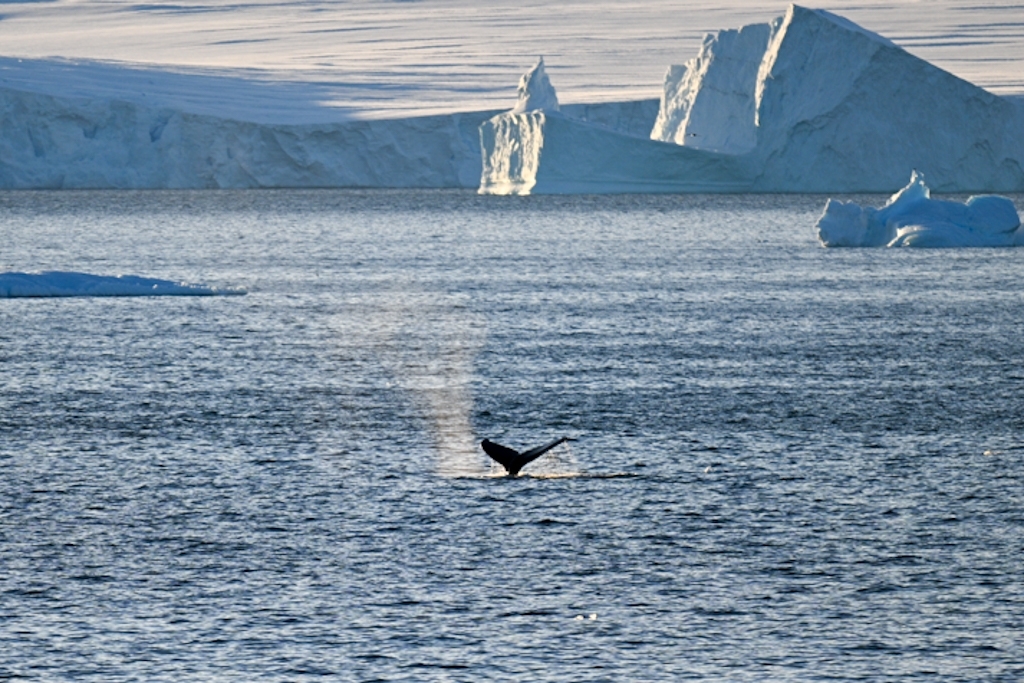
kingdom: Animalia
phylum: Chordata
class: Mammalia
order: Cetacea
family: Balaenopteridae
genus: Megaptera
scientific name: Megaptera novaeangliae
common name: Humpback whale
